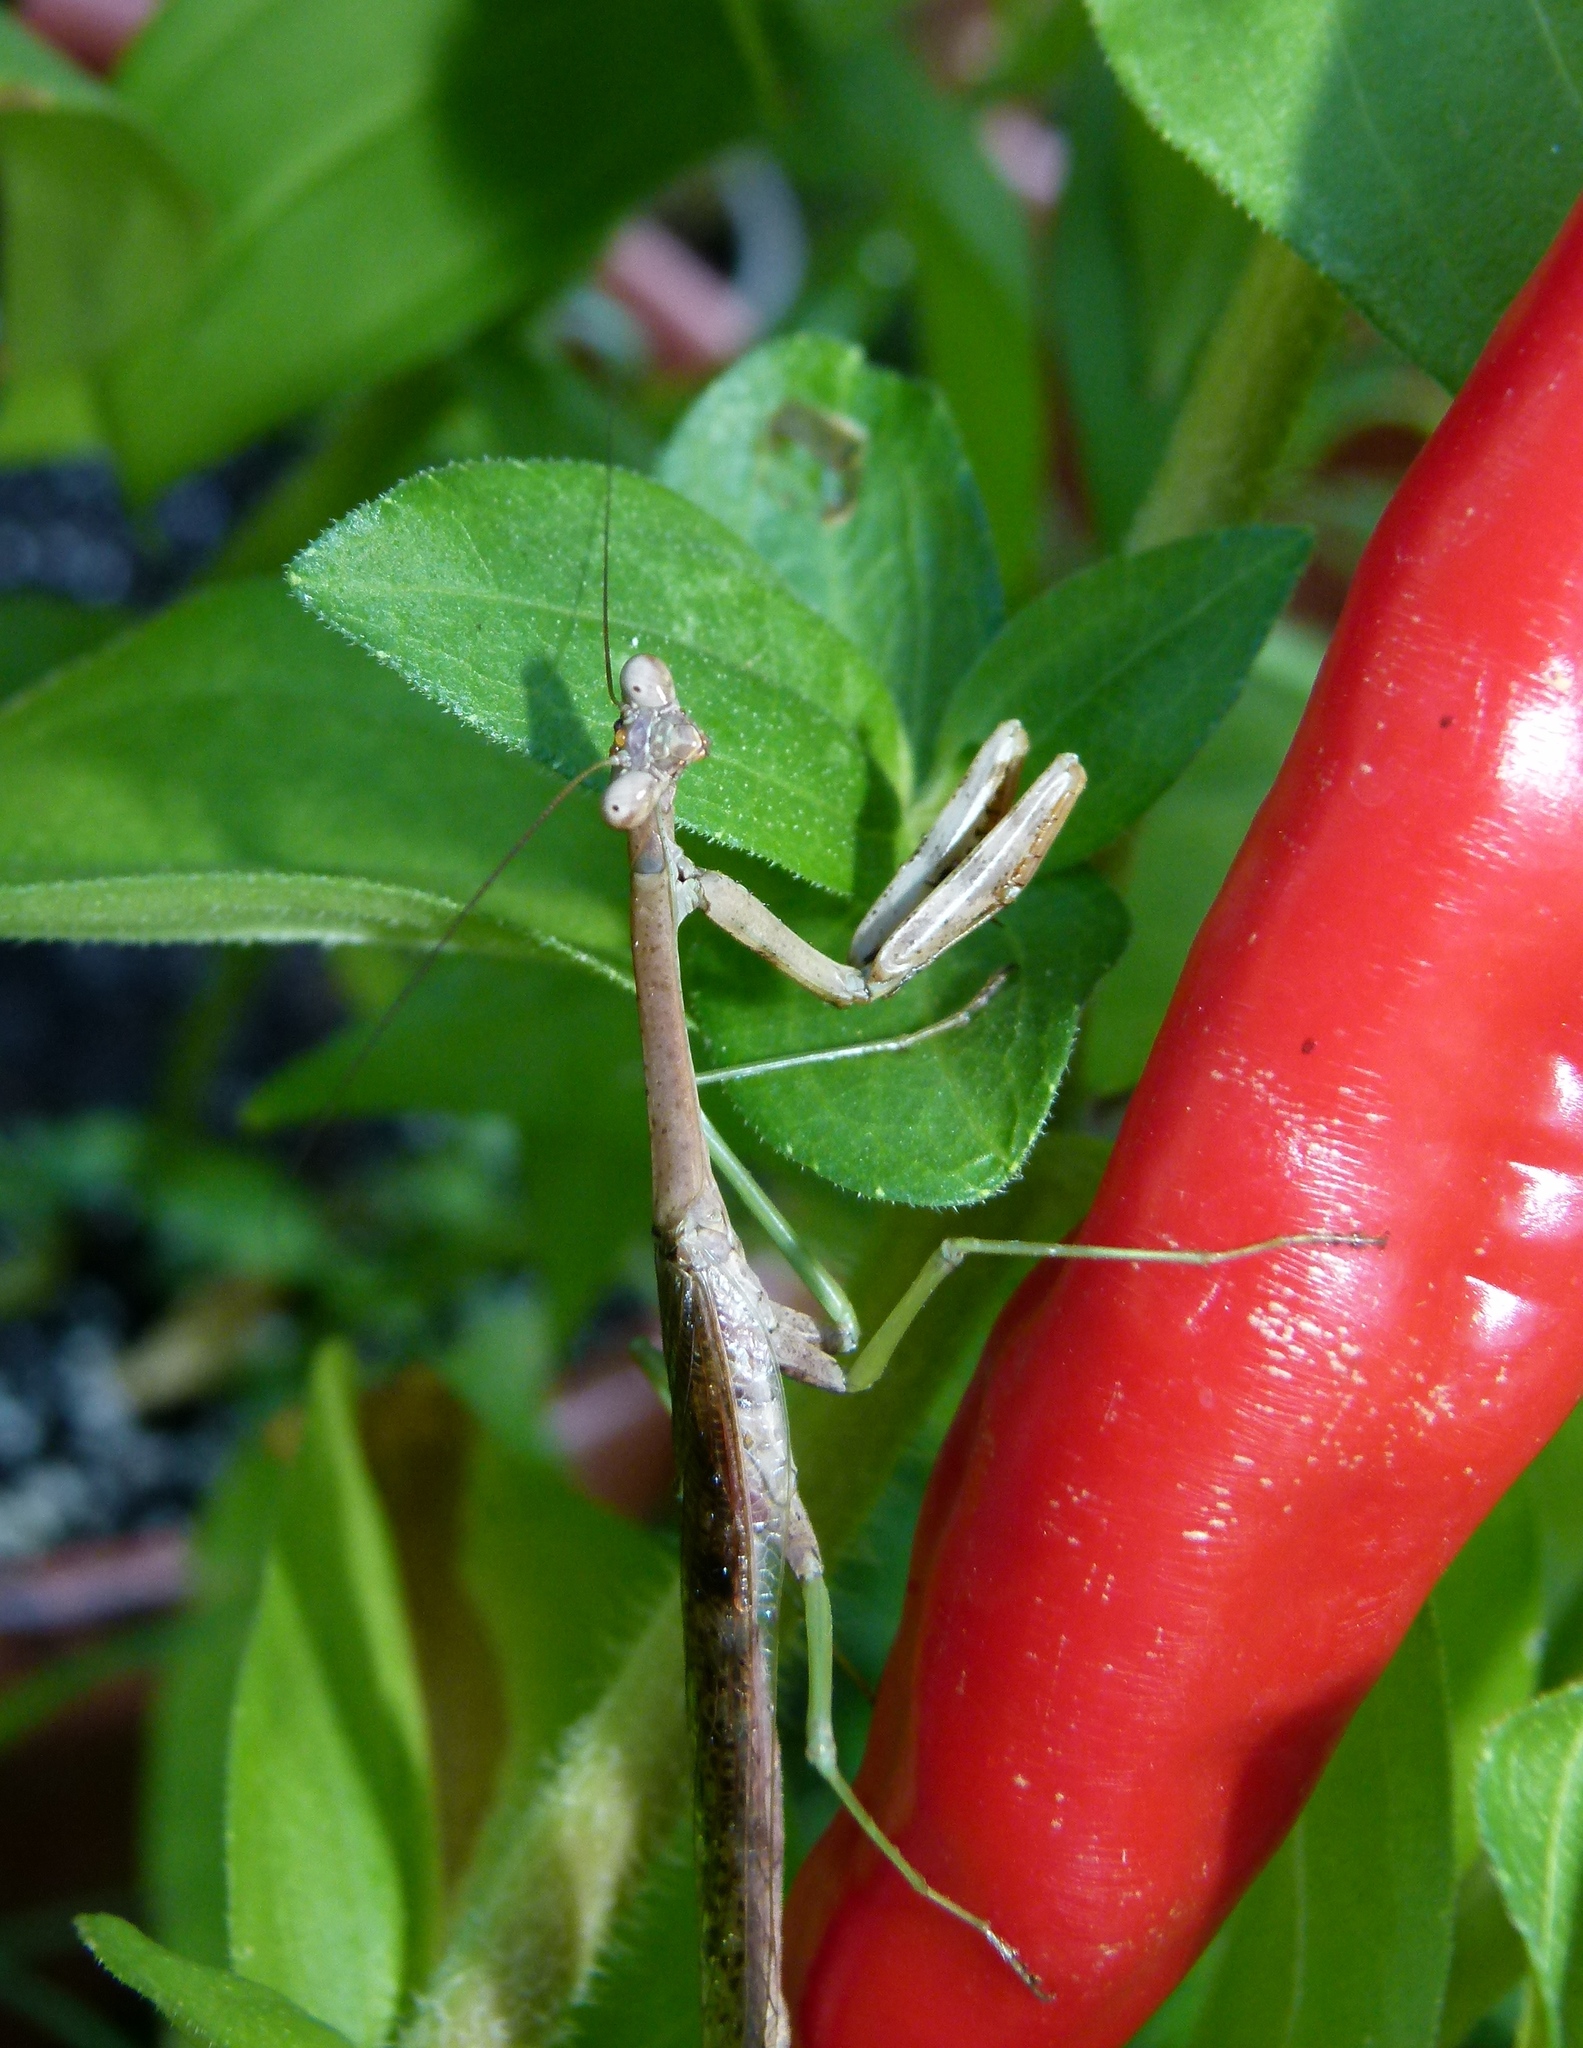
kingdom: Animalia
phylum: Arthropoda
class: Insecta
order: Mantodea
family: Mantidae
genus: Stagmomantis
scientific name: Stagmomantis carolina
